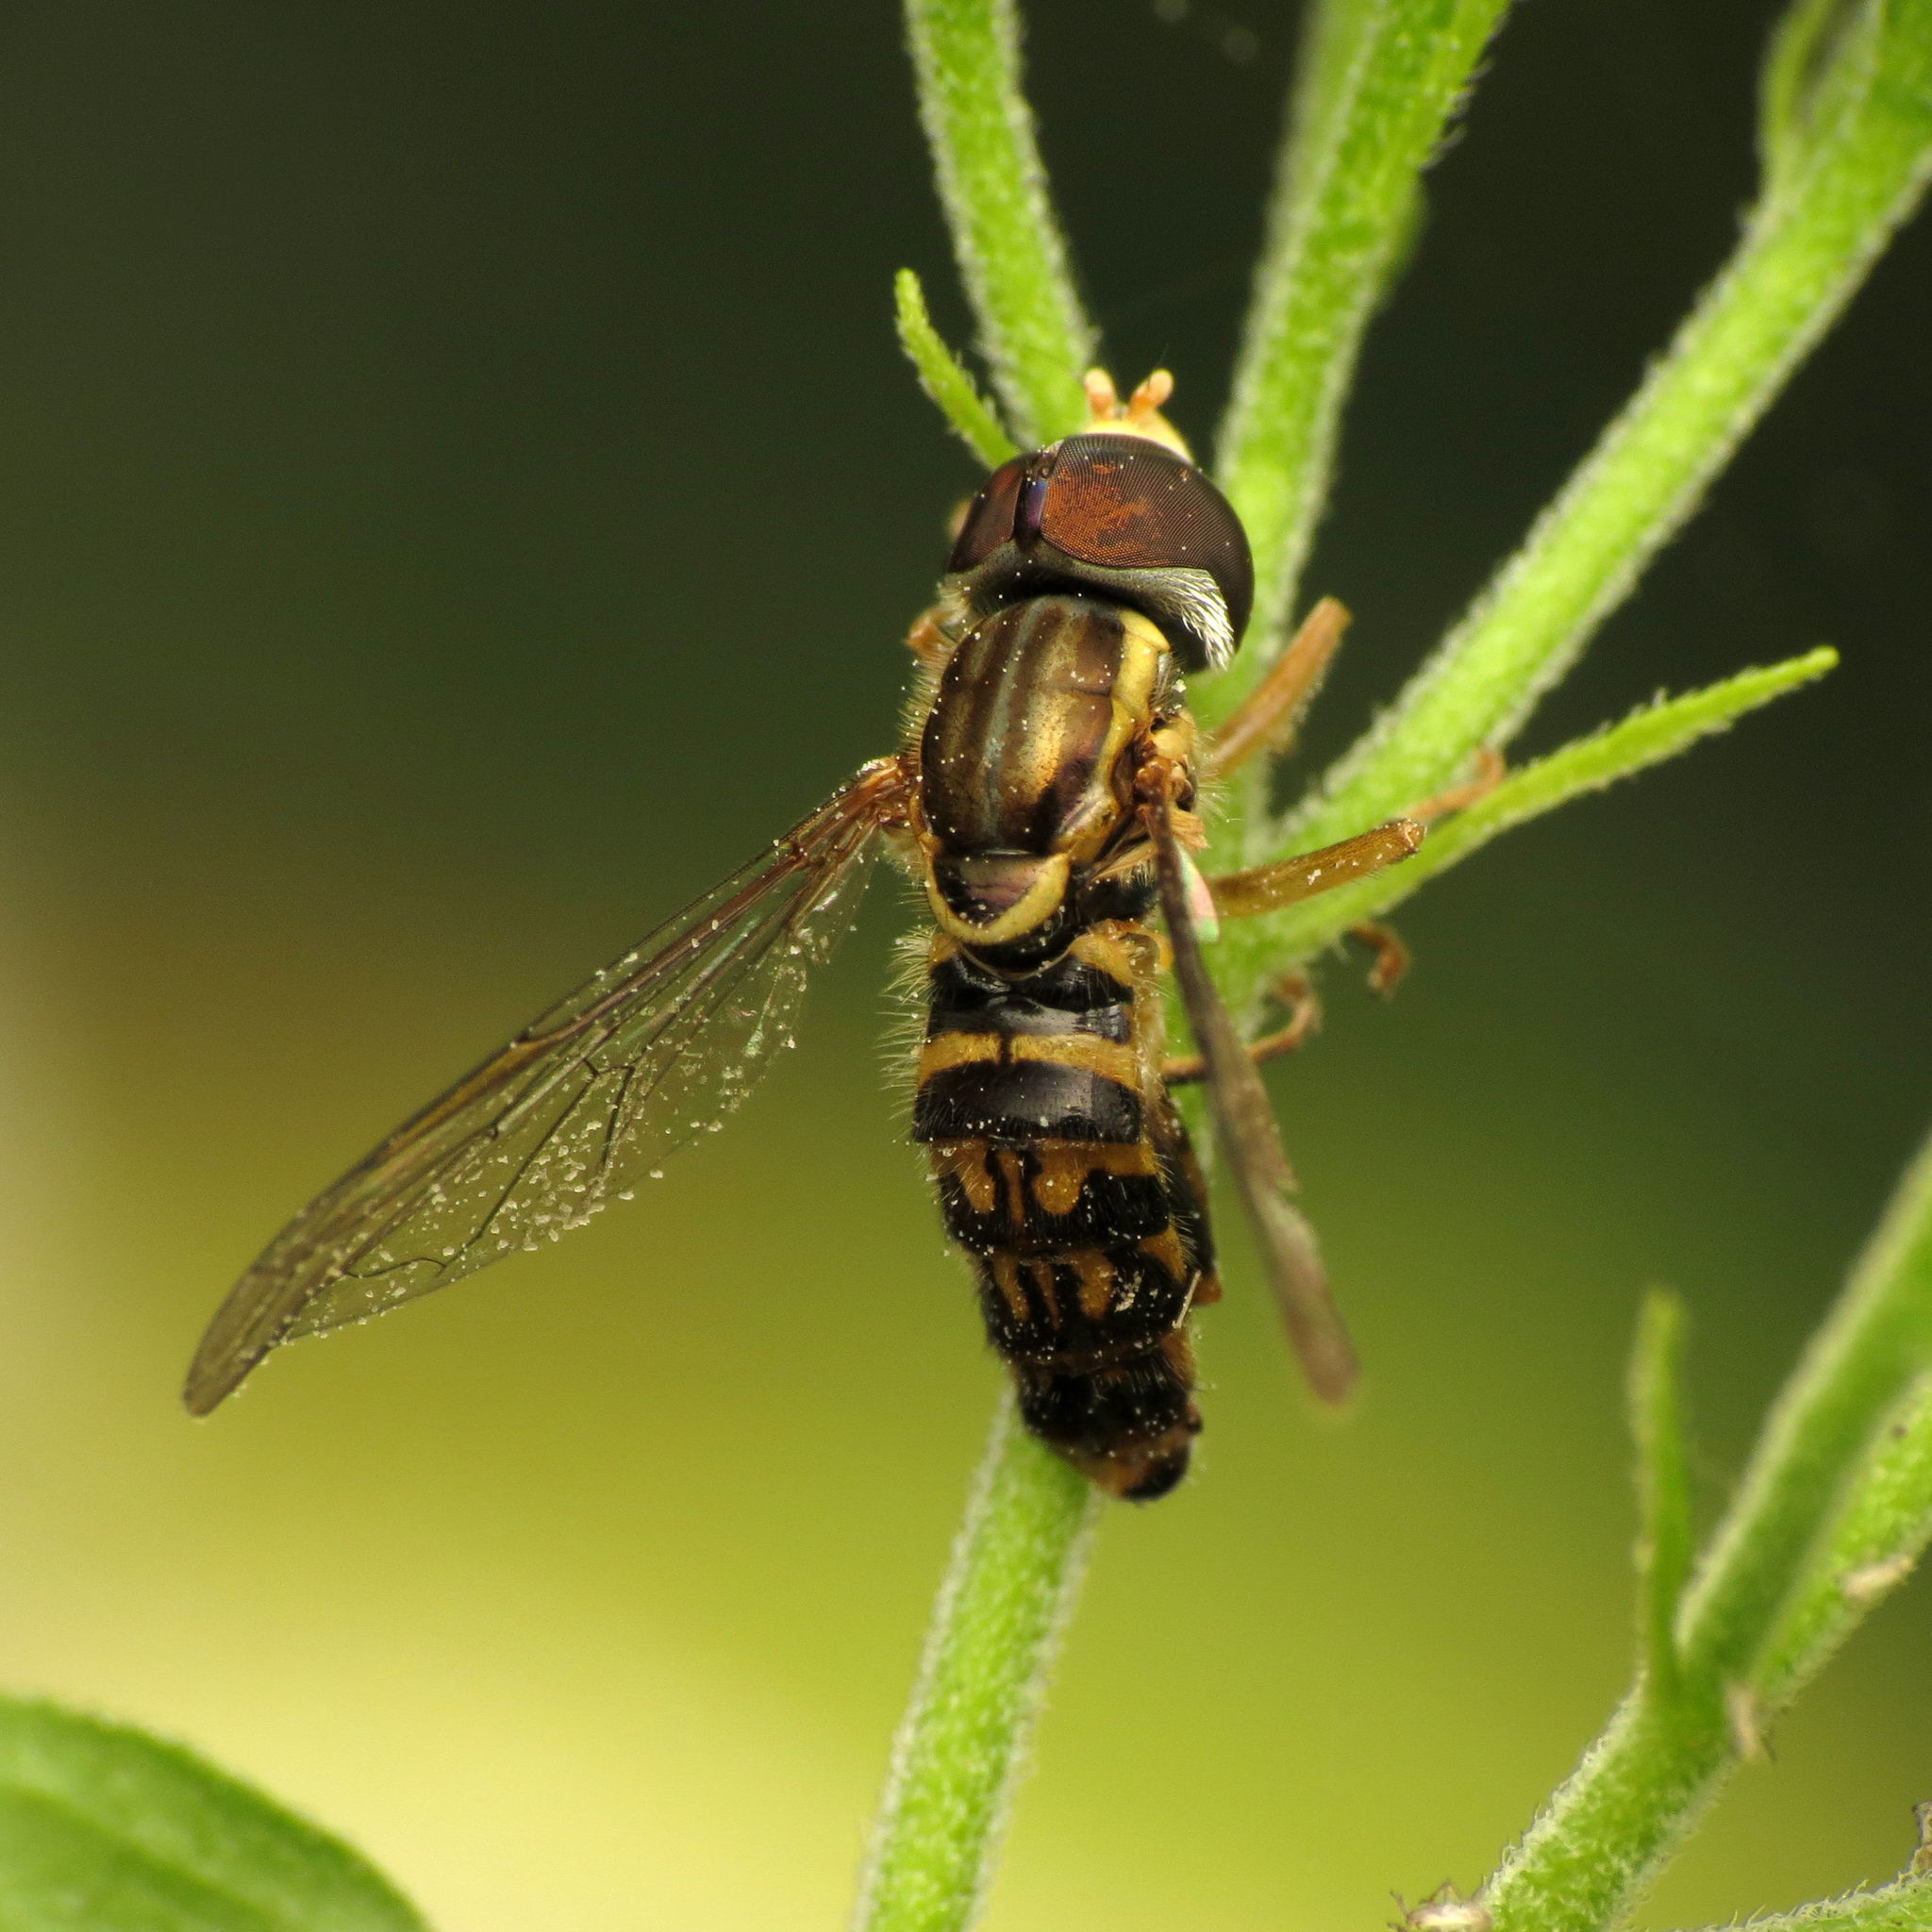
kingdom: Animalia
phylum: Arthropoda
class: Insecta
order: Diptera
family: Syrphidae
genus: Toxomerus
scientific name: Toxomerus geminatus
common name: Eastern calligrapher
